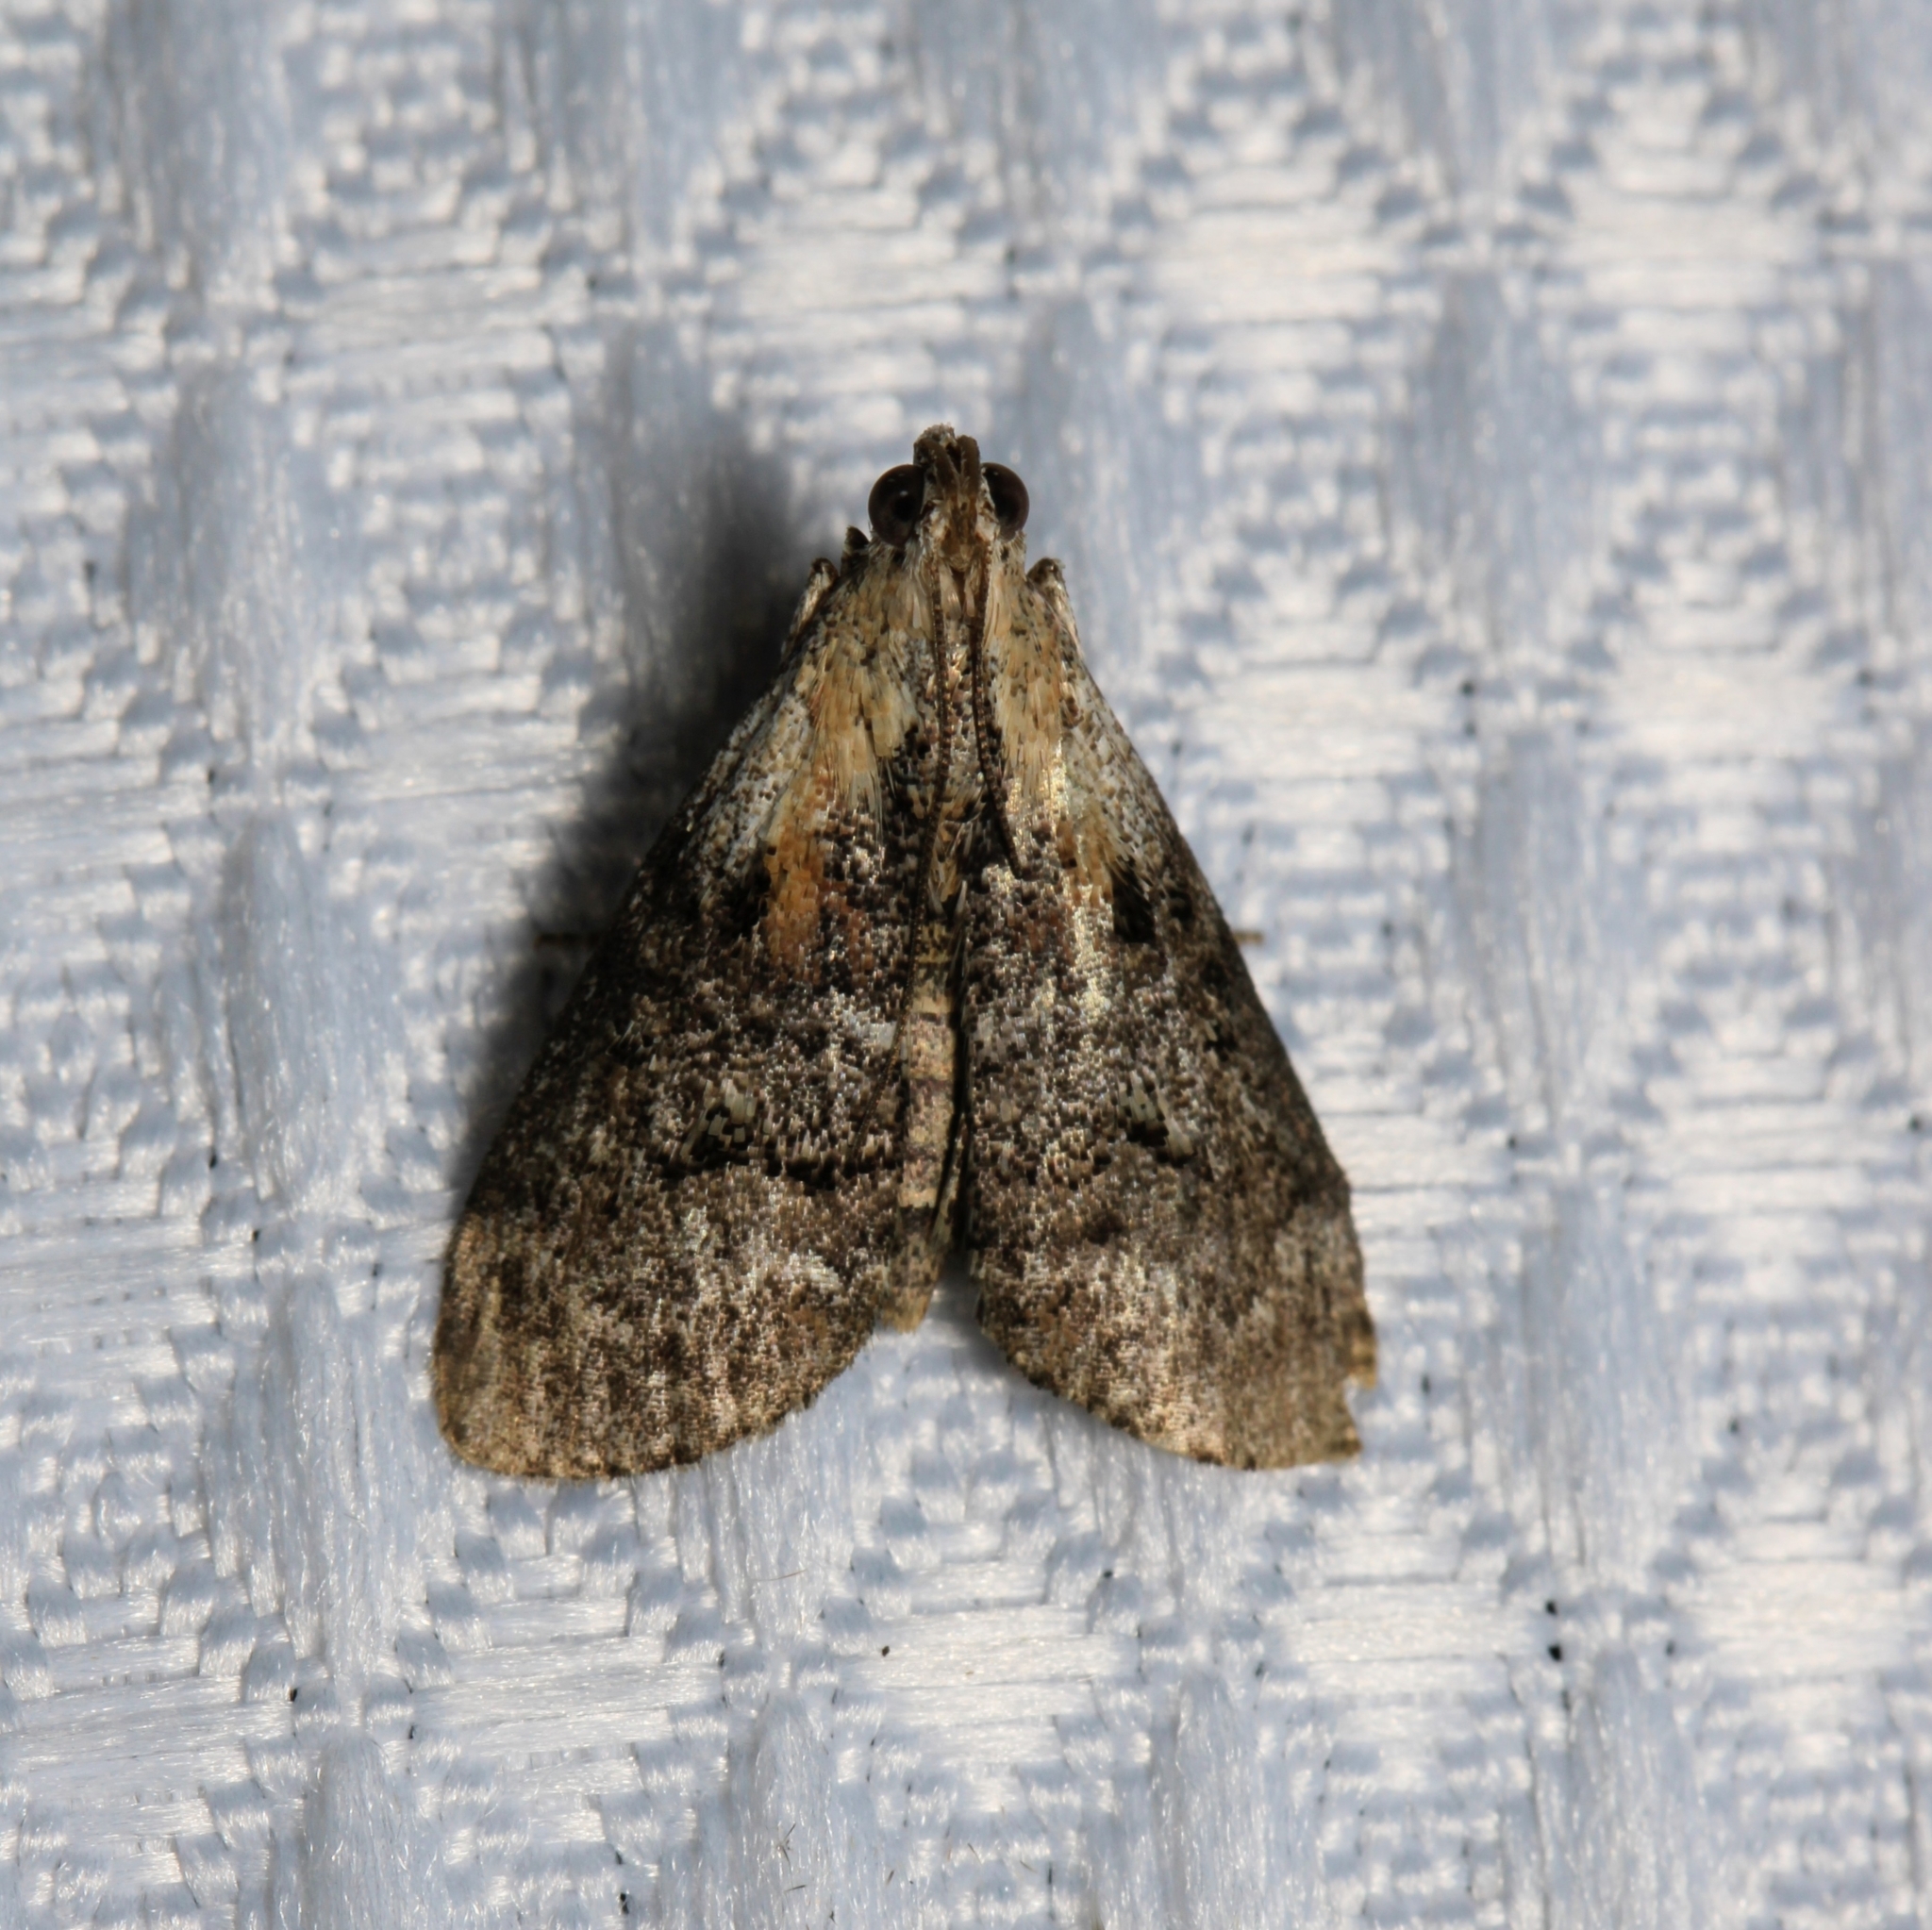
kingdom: Animalia
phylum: Arthropoda
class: Insecta
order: Lepidoptera
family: Pyralidae
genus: Pococera
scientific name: Pococera expandens
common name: Striped oak webworm moth
